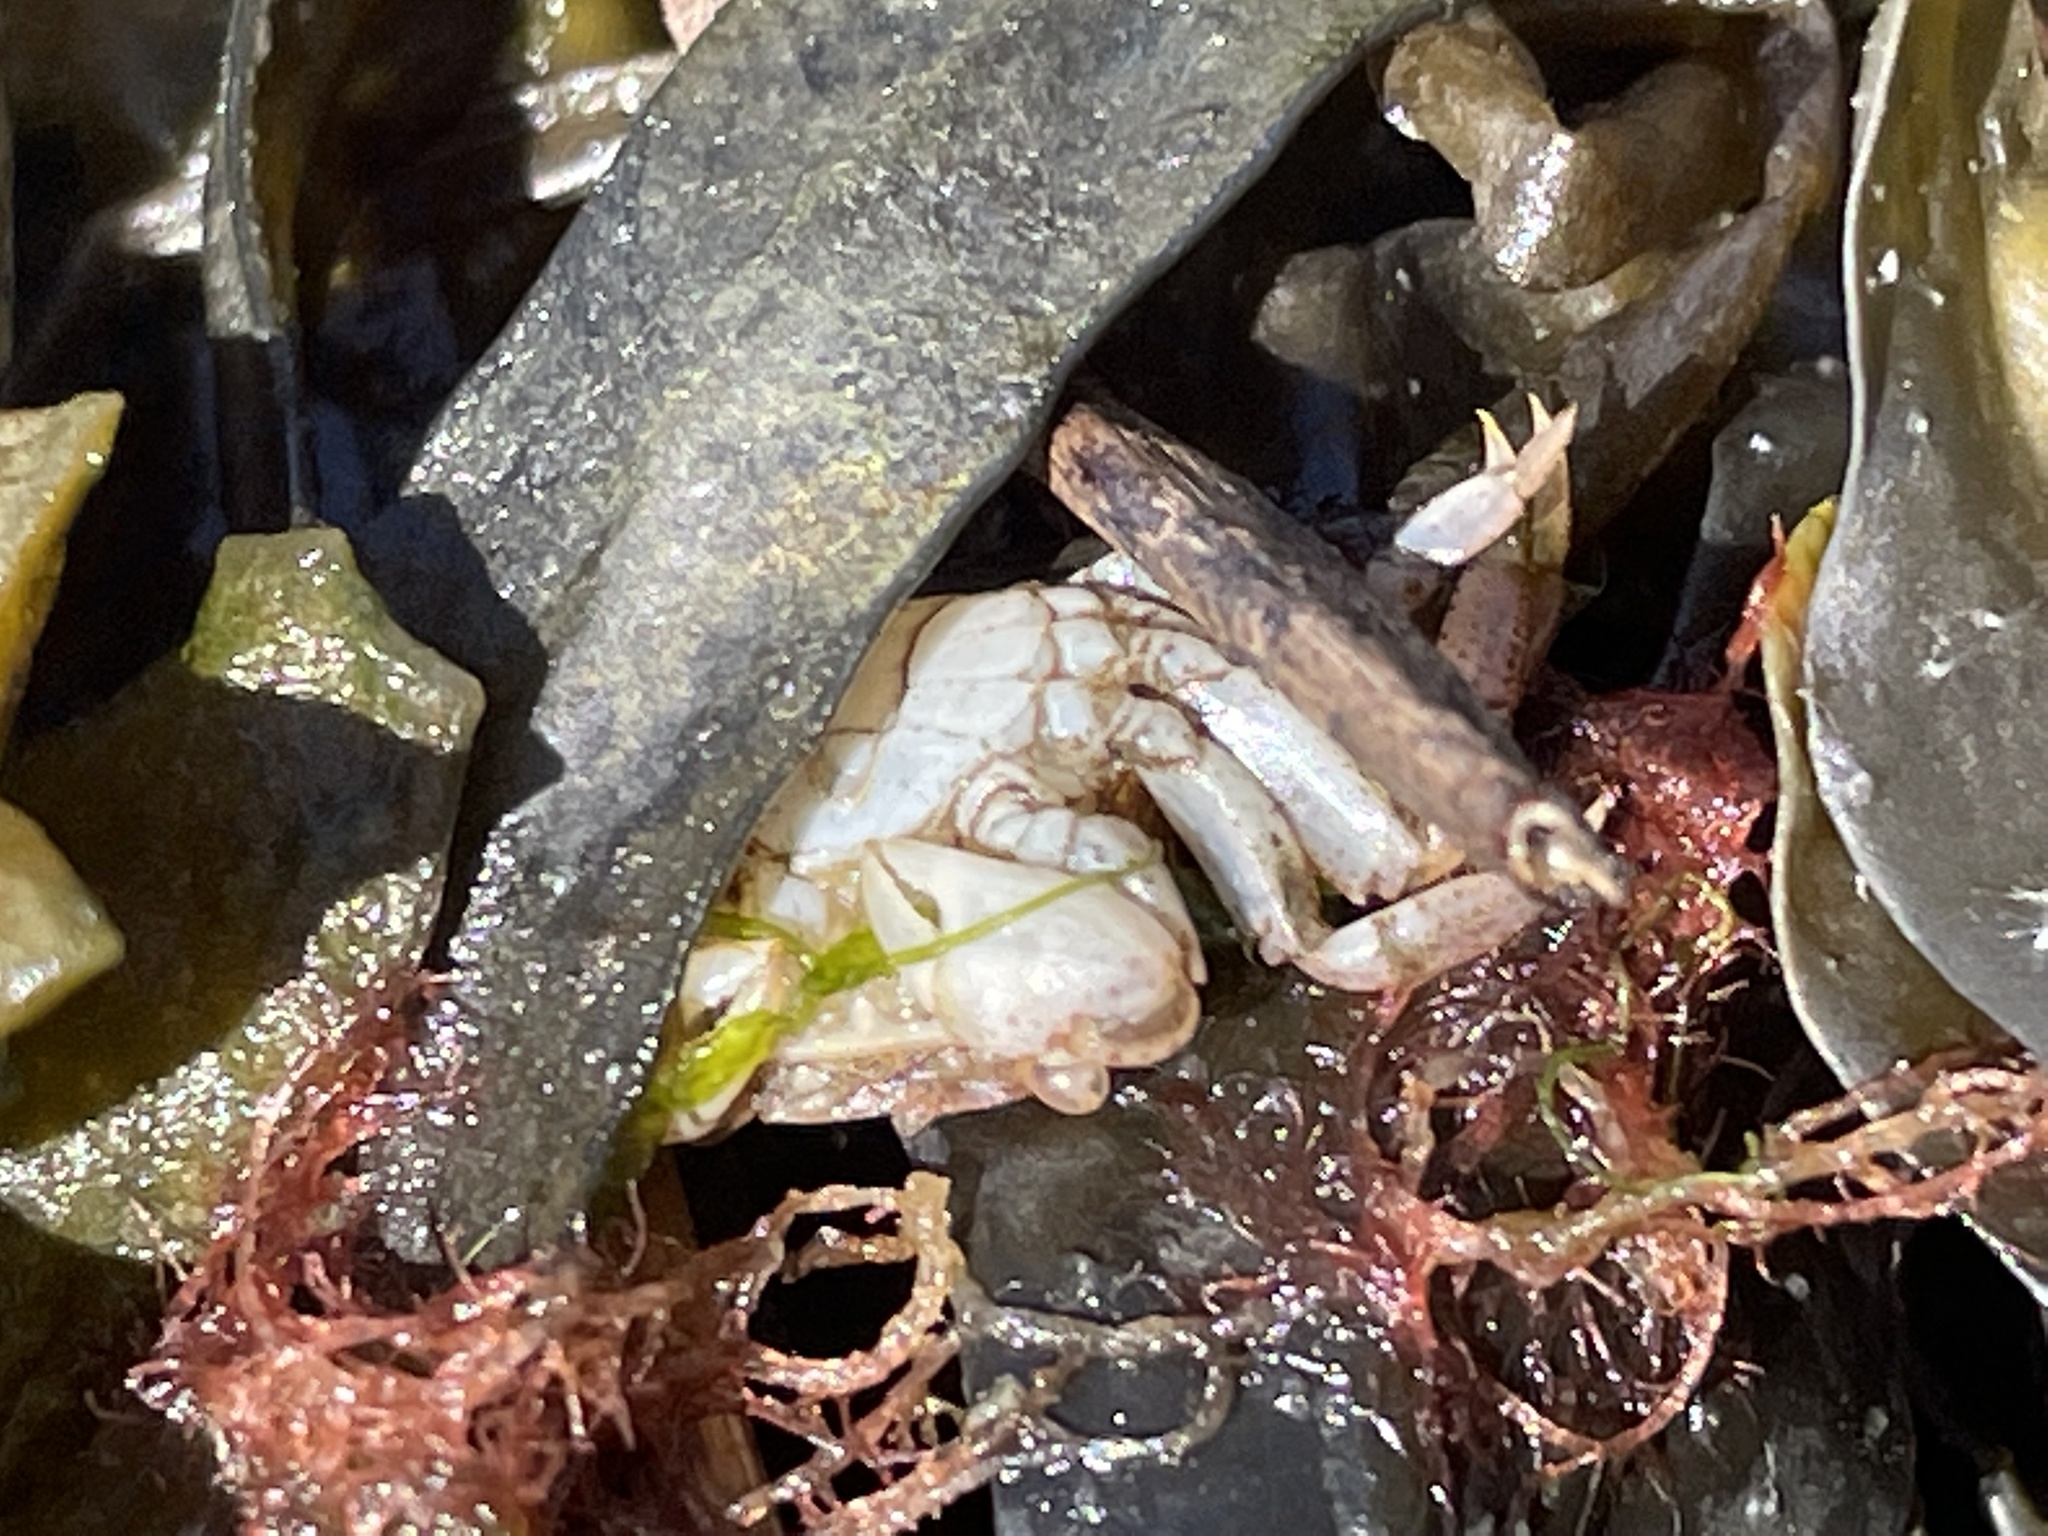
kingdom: Animalia
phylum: Arthropoda
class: Malacostraca
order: Decapoda
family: Varunidae
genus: Hemigrapsus
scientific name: Hemigrapsus sanguineus
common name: Asian shore crab
